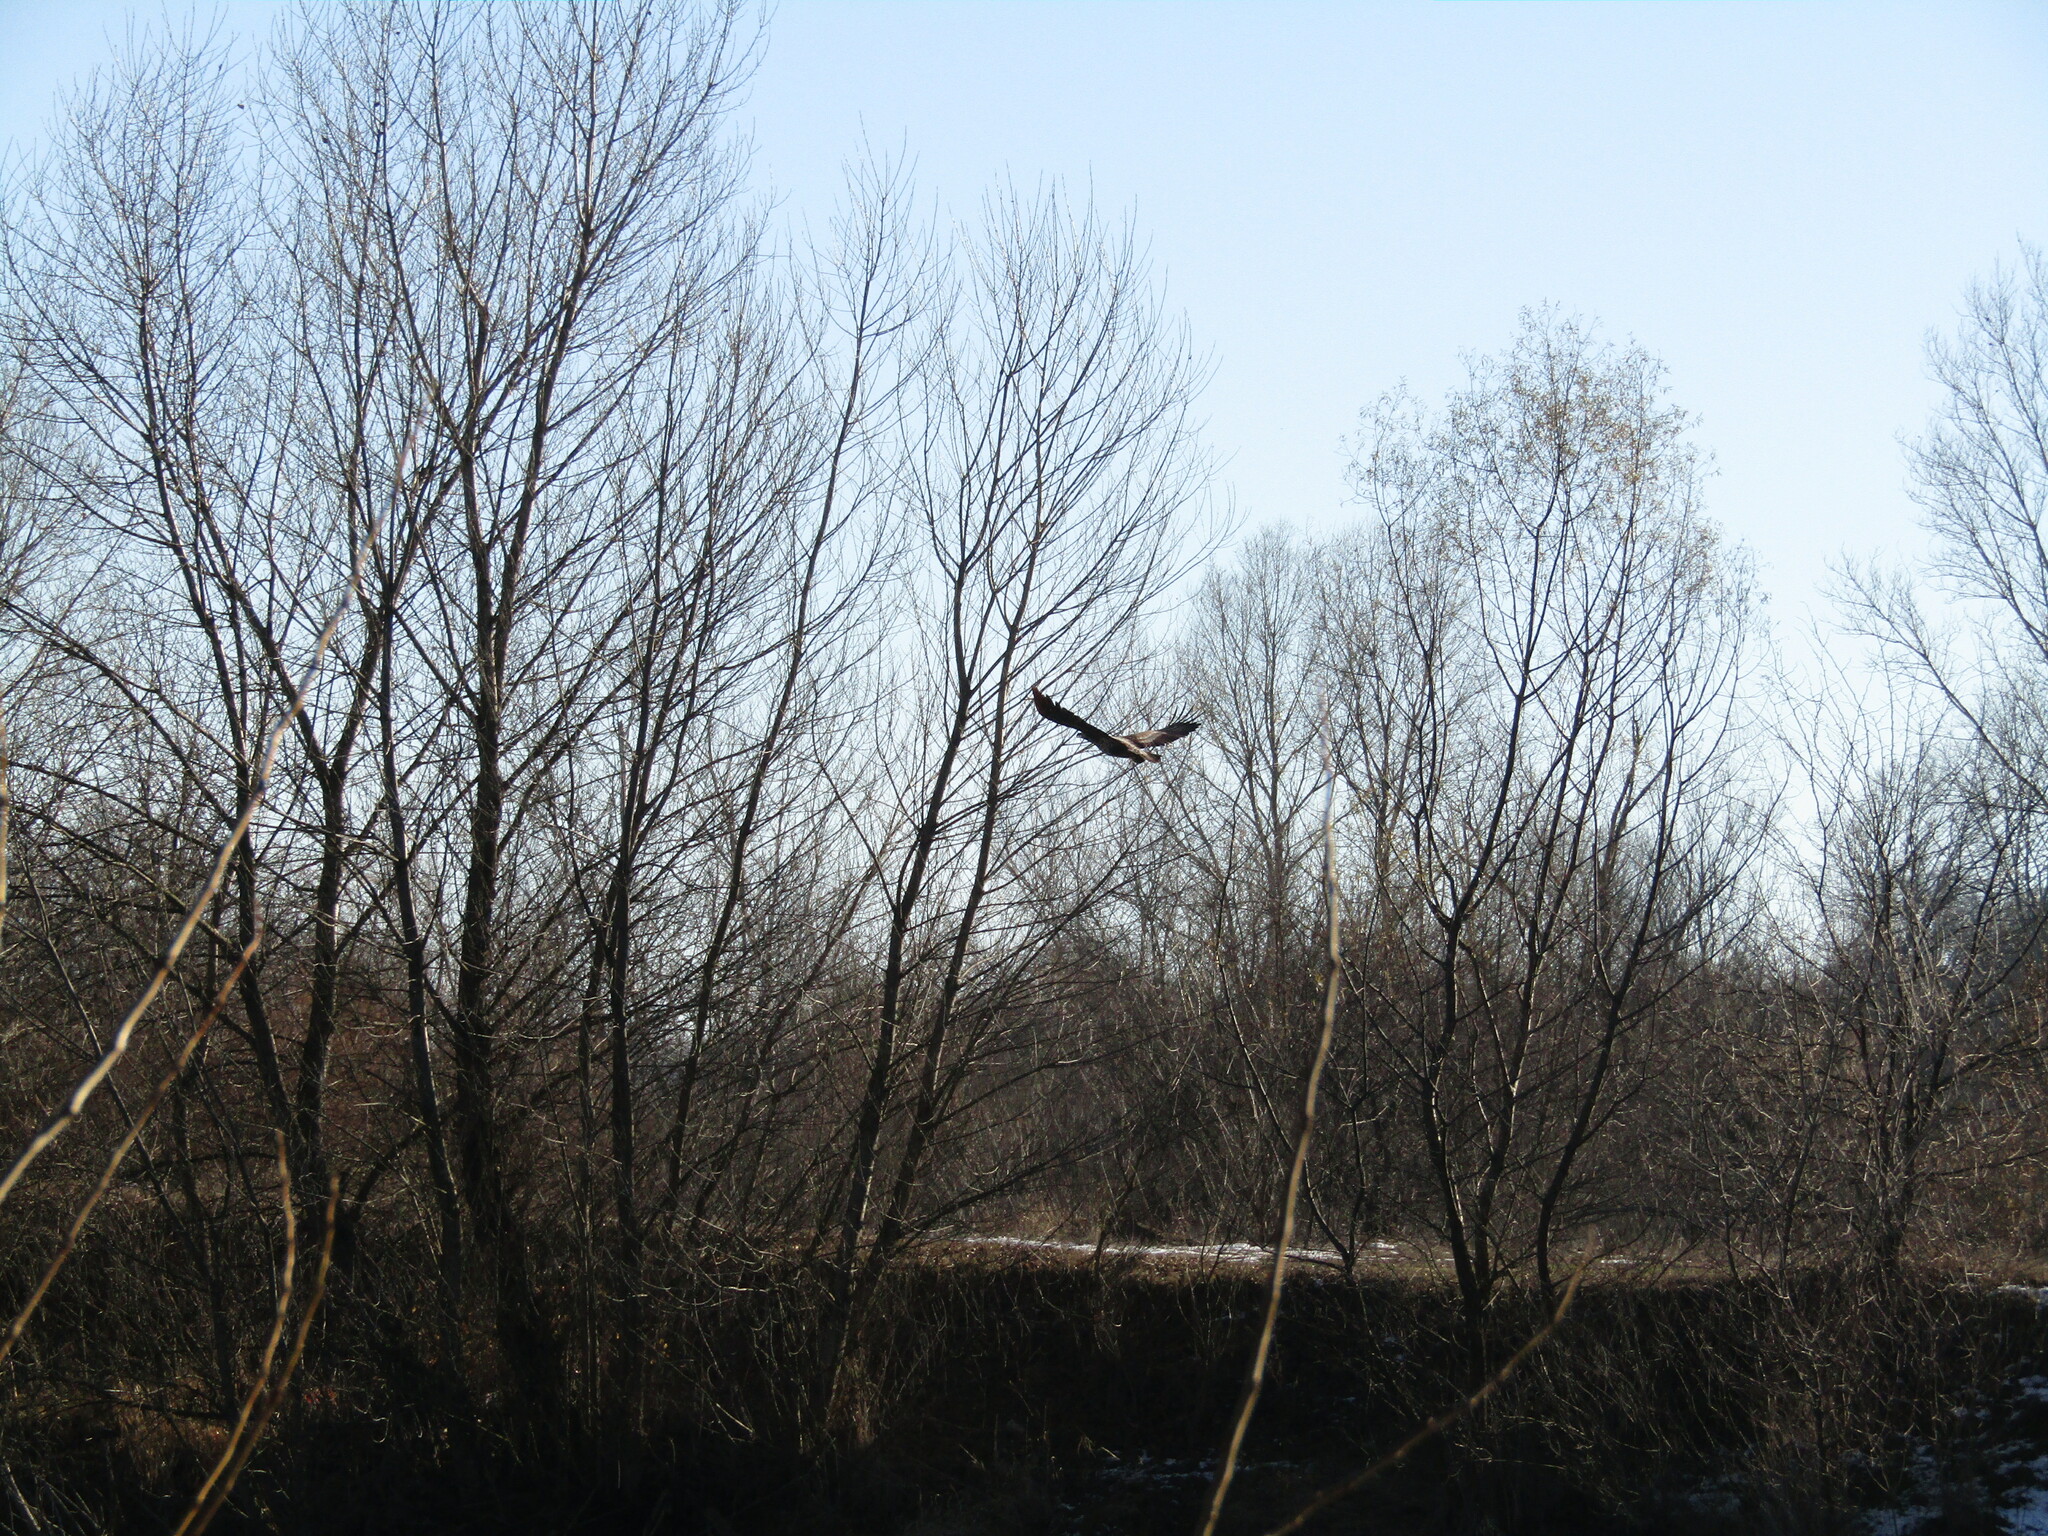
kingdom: Animalia
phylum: Chordata
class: Aves
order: Accipitriformes
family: Accipitridae
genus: Haliaeetus
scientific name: Haliaeetus albicilla
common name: White-tailed eagle
